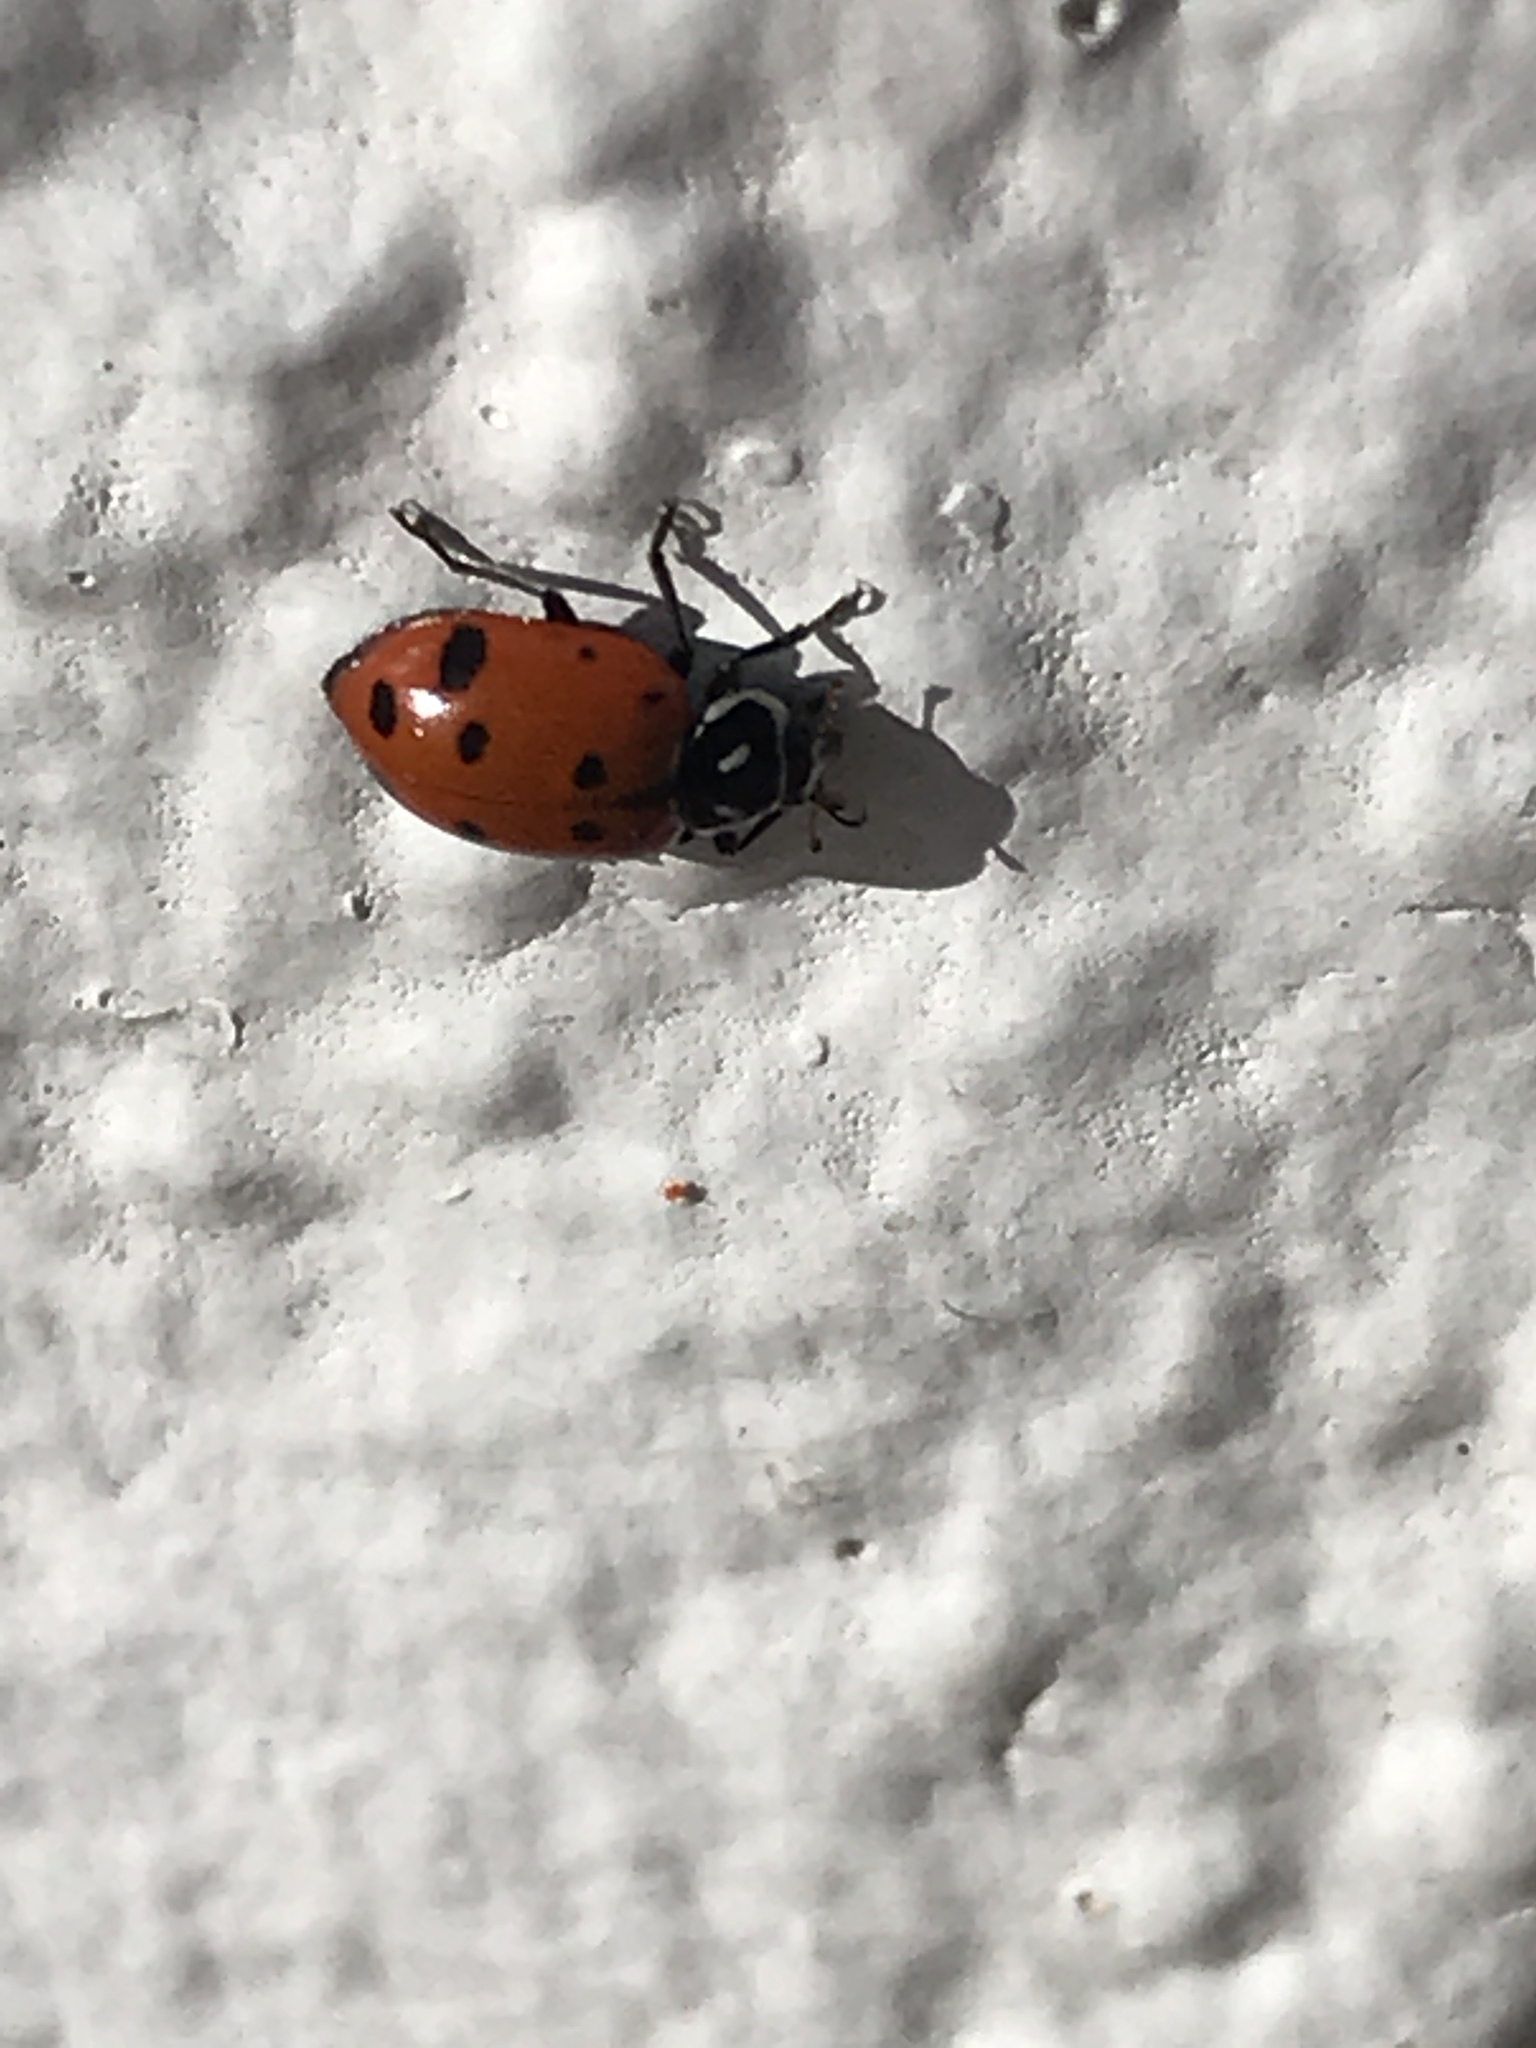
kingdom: Animalia
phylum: Arthropoda
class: Insecta
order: Coleoptera
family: Coccinellidae
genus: Hippodamia
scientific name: Hippodamia convergens
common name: Convergent lady beetle
